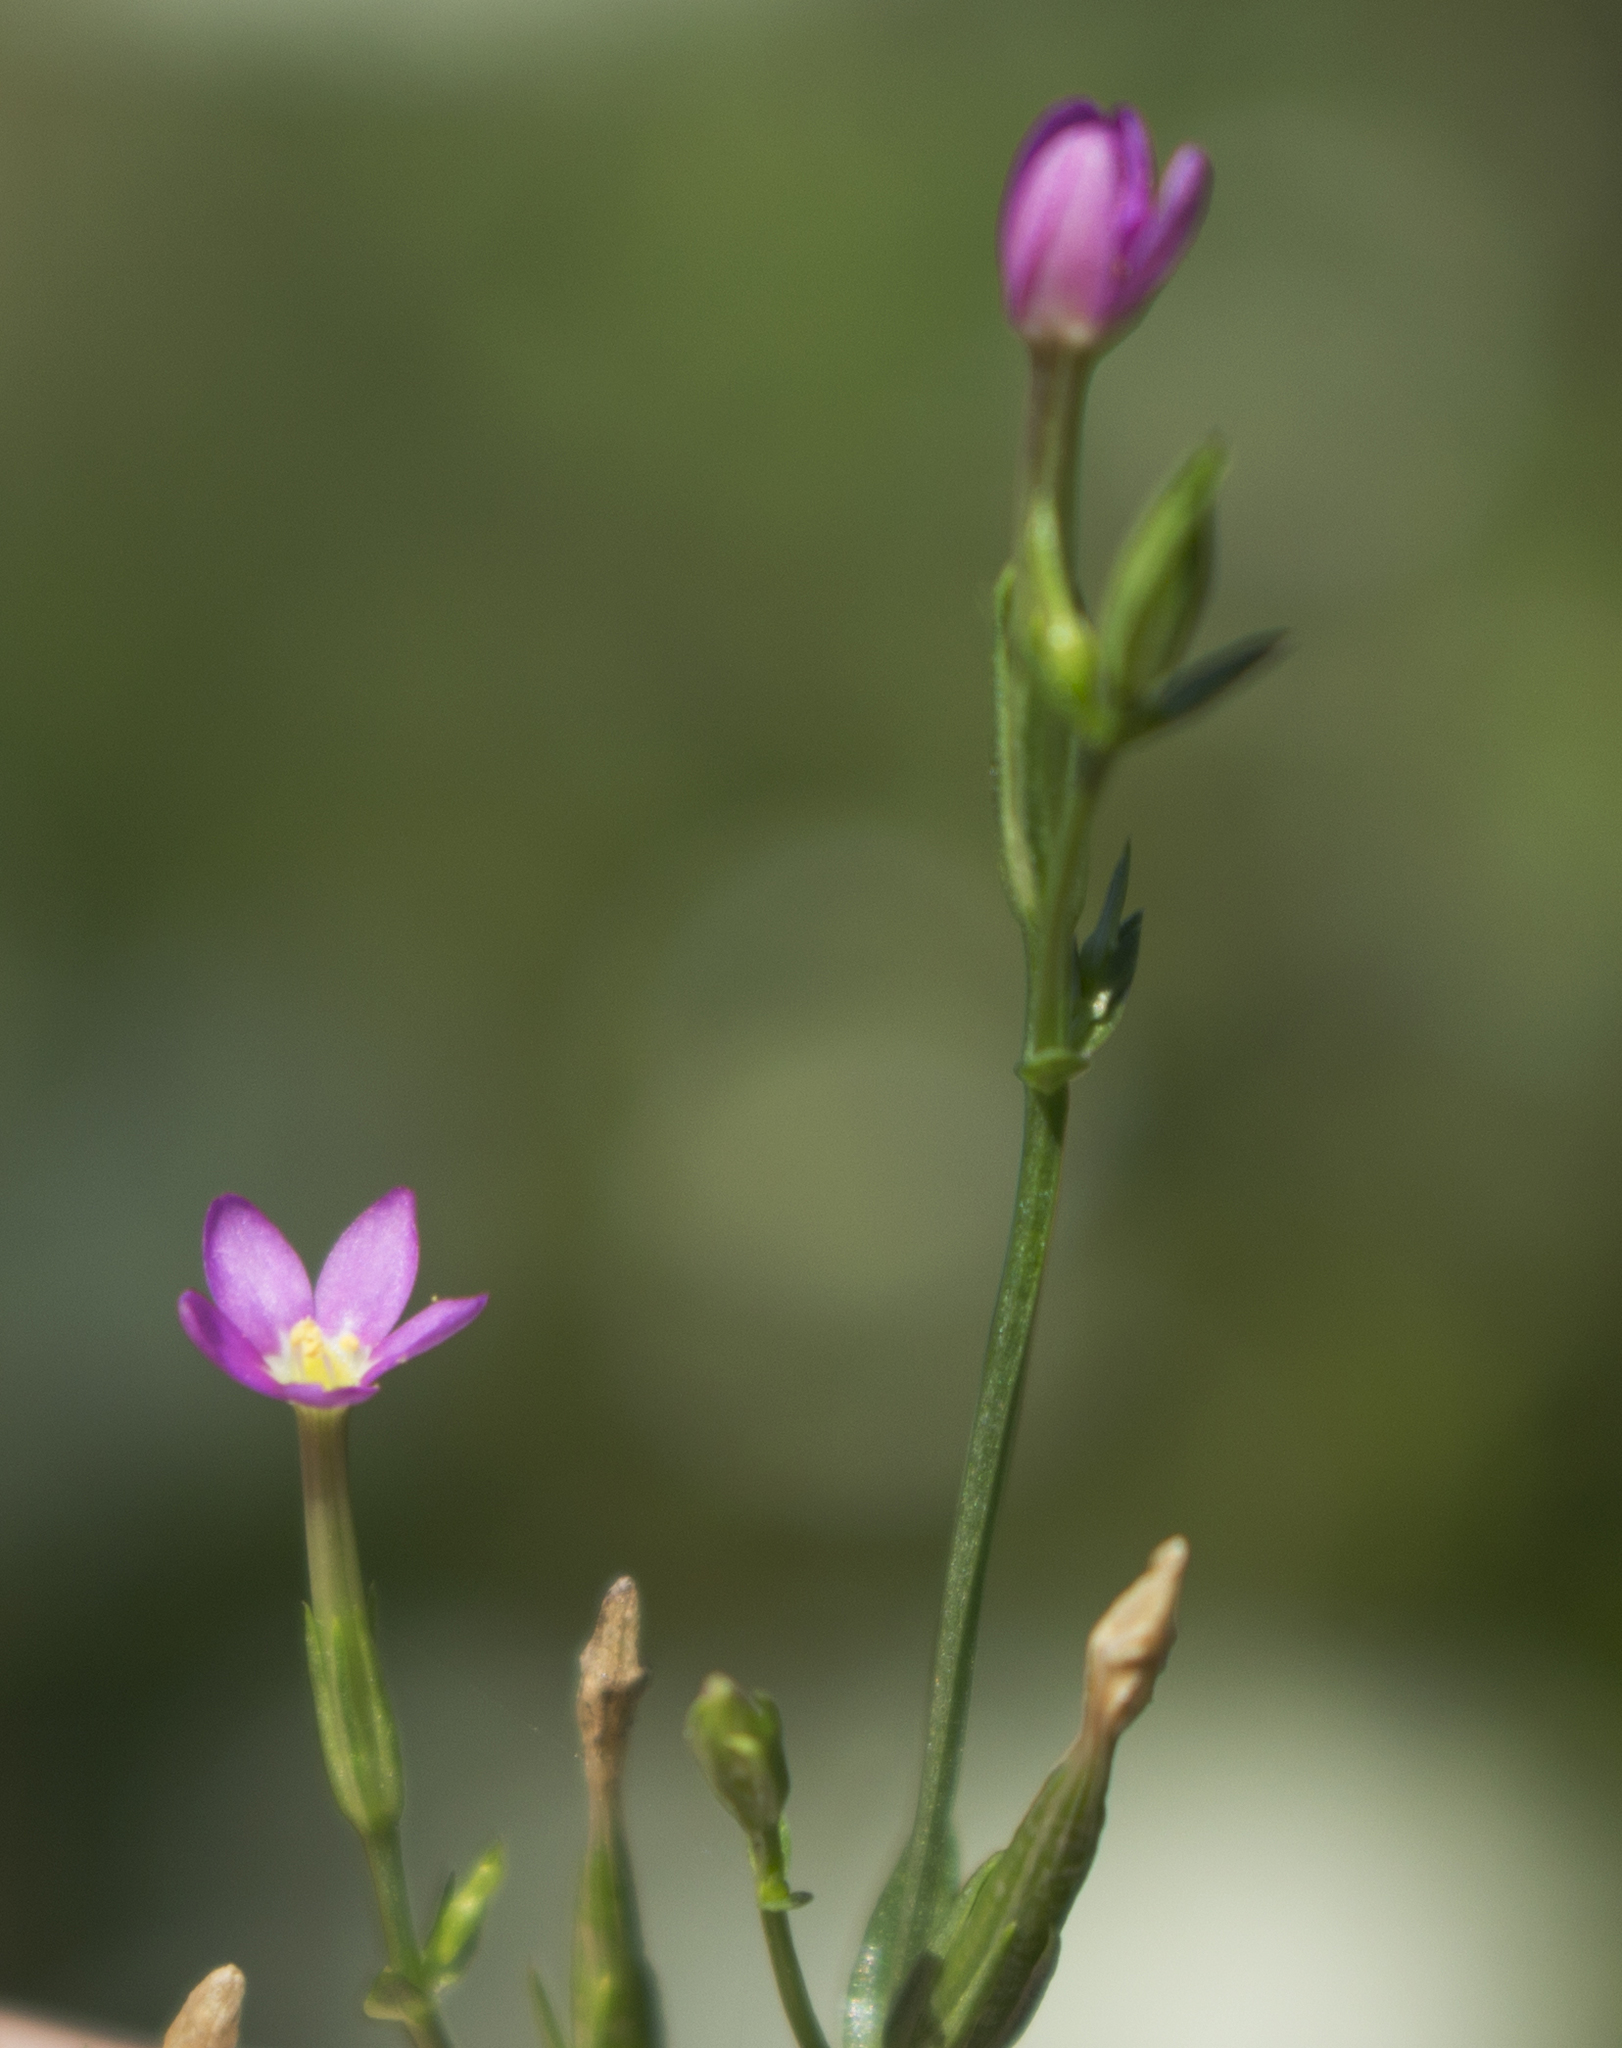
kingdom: Plantae
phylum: Tracheophyta
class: Magnoliopsida
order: Gentianales
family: Gentianaceae
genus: Centaurium
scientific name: Centaurium pulchellum
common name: Lesser centaury
